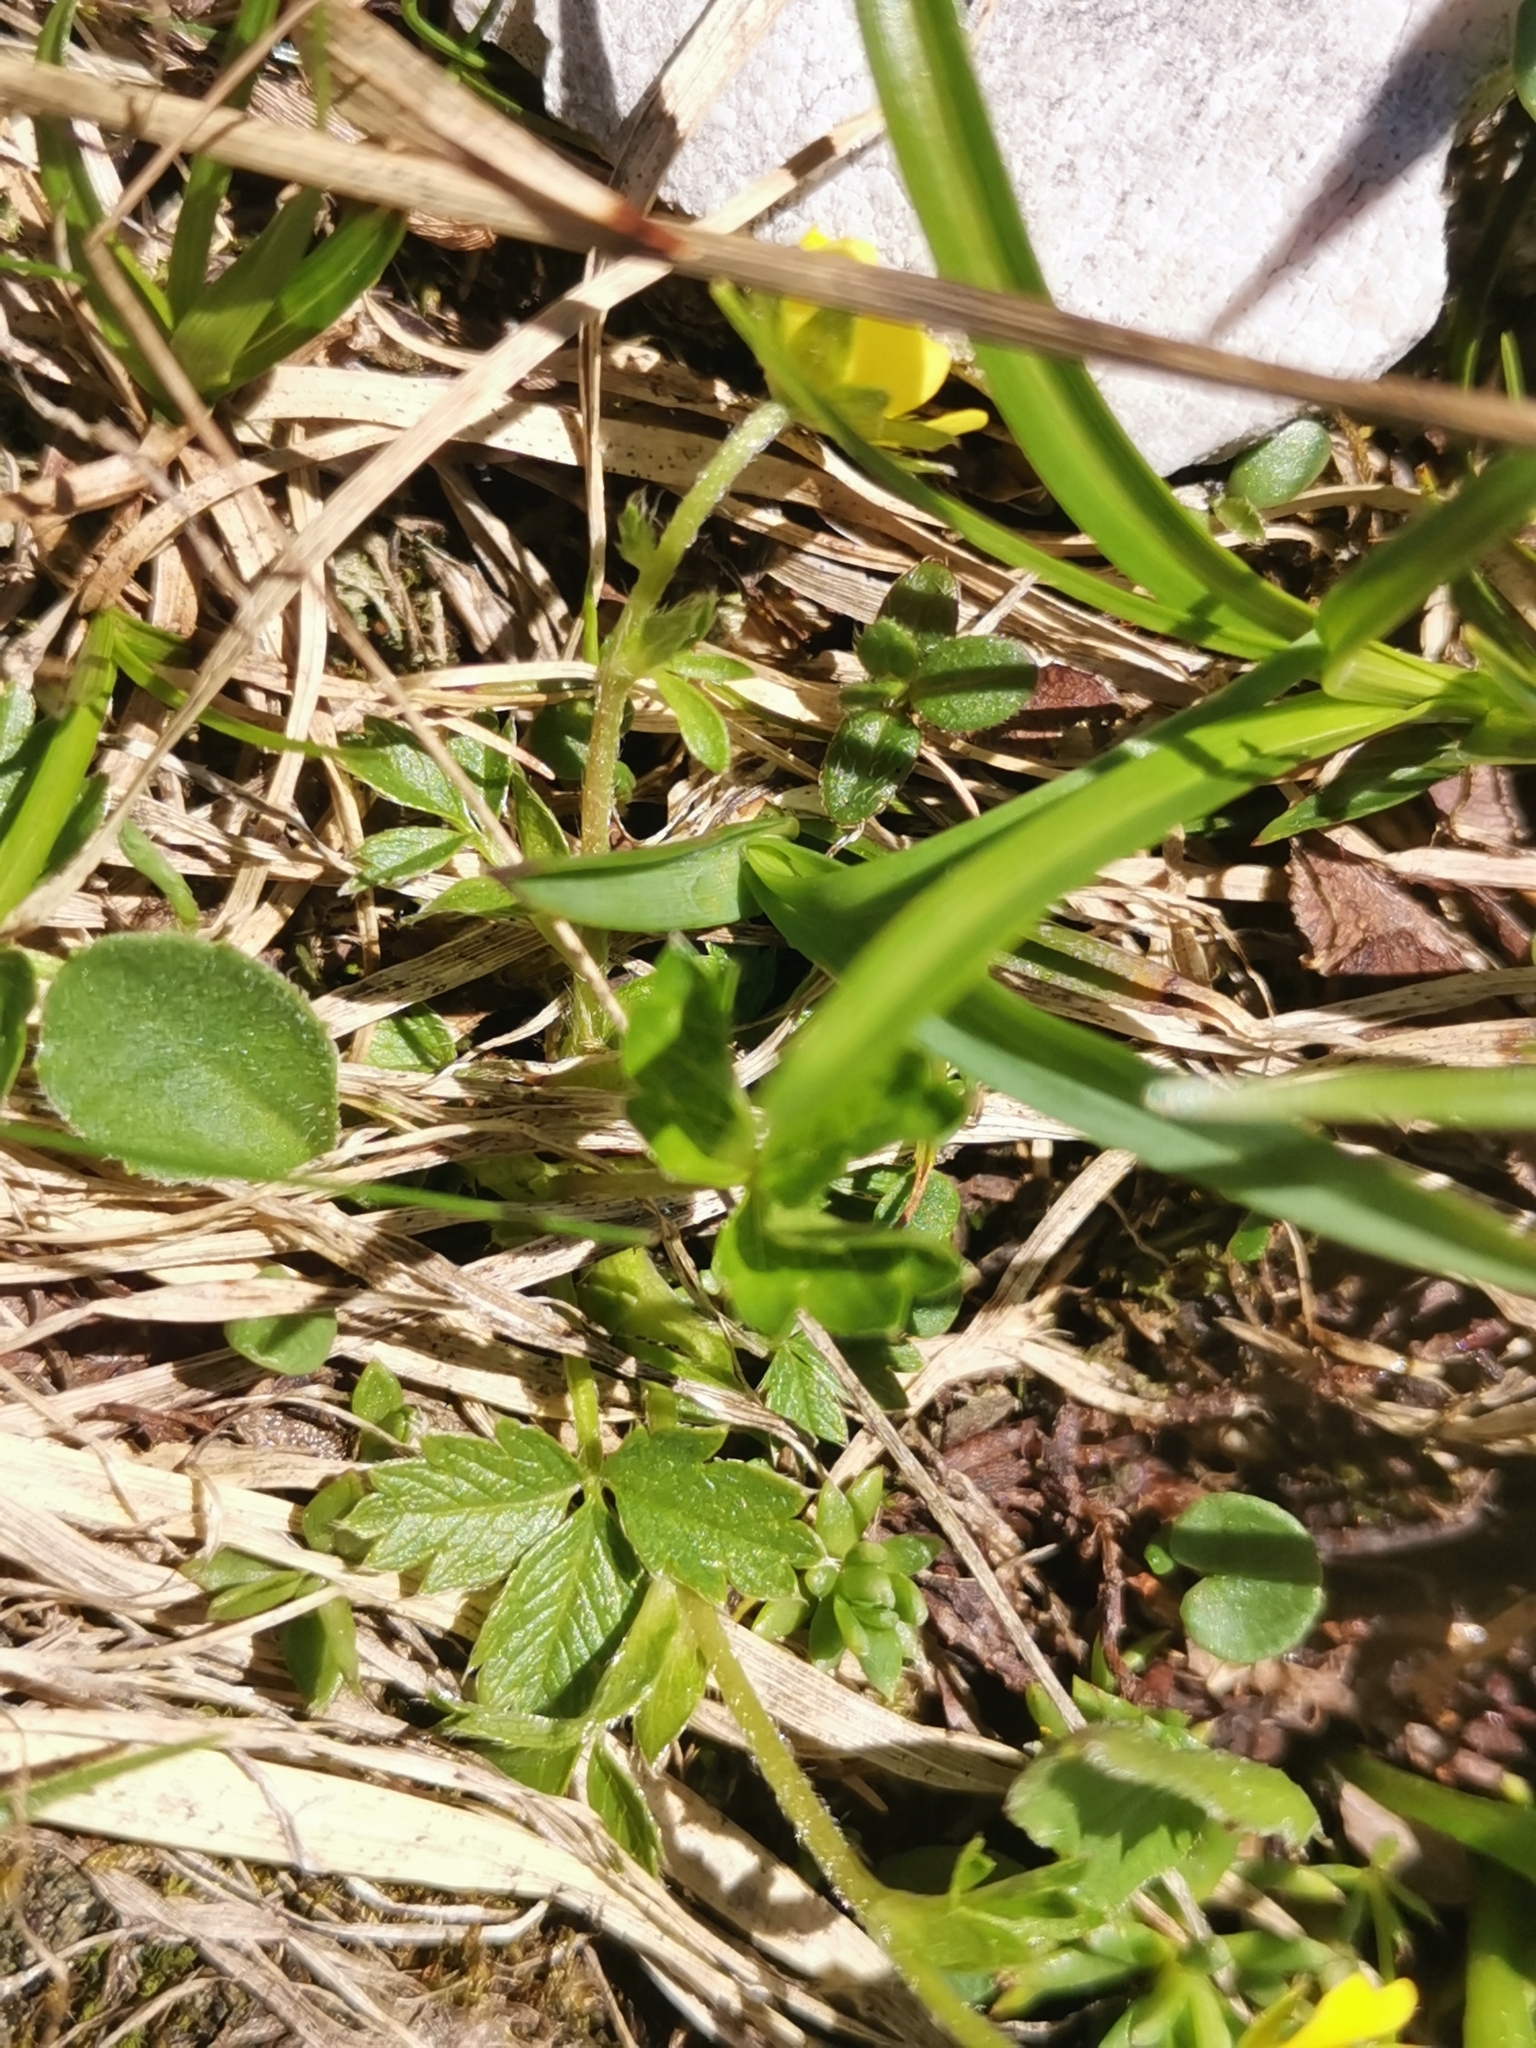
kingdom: Plantae
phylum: Tracheophyta
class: Magnoliopsida
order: Rosales
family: Rosaceae
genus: Potentilla
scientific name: Potentilla brauneana
